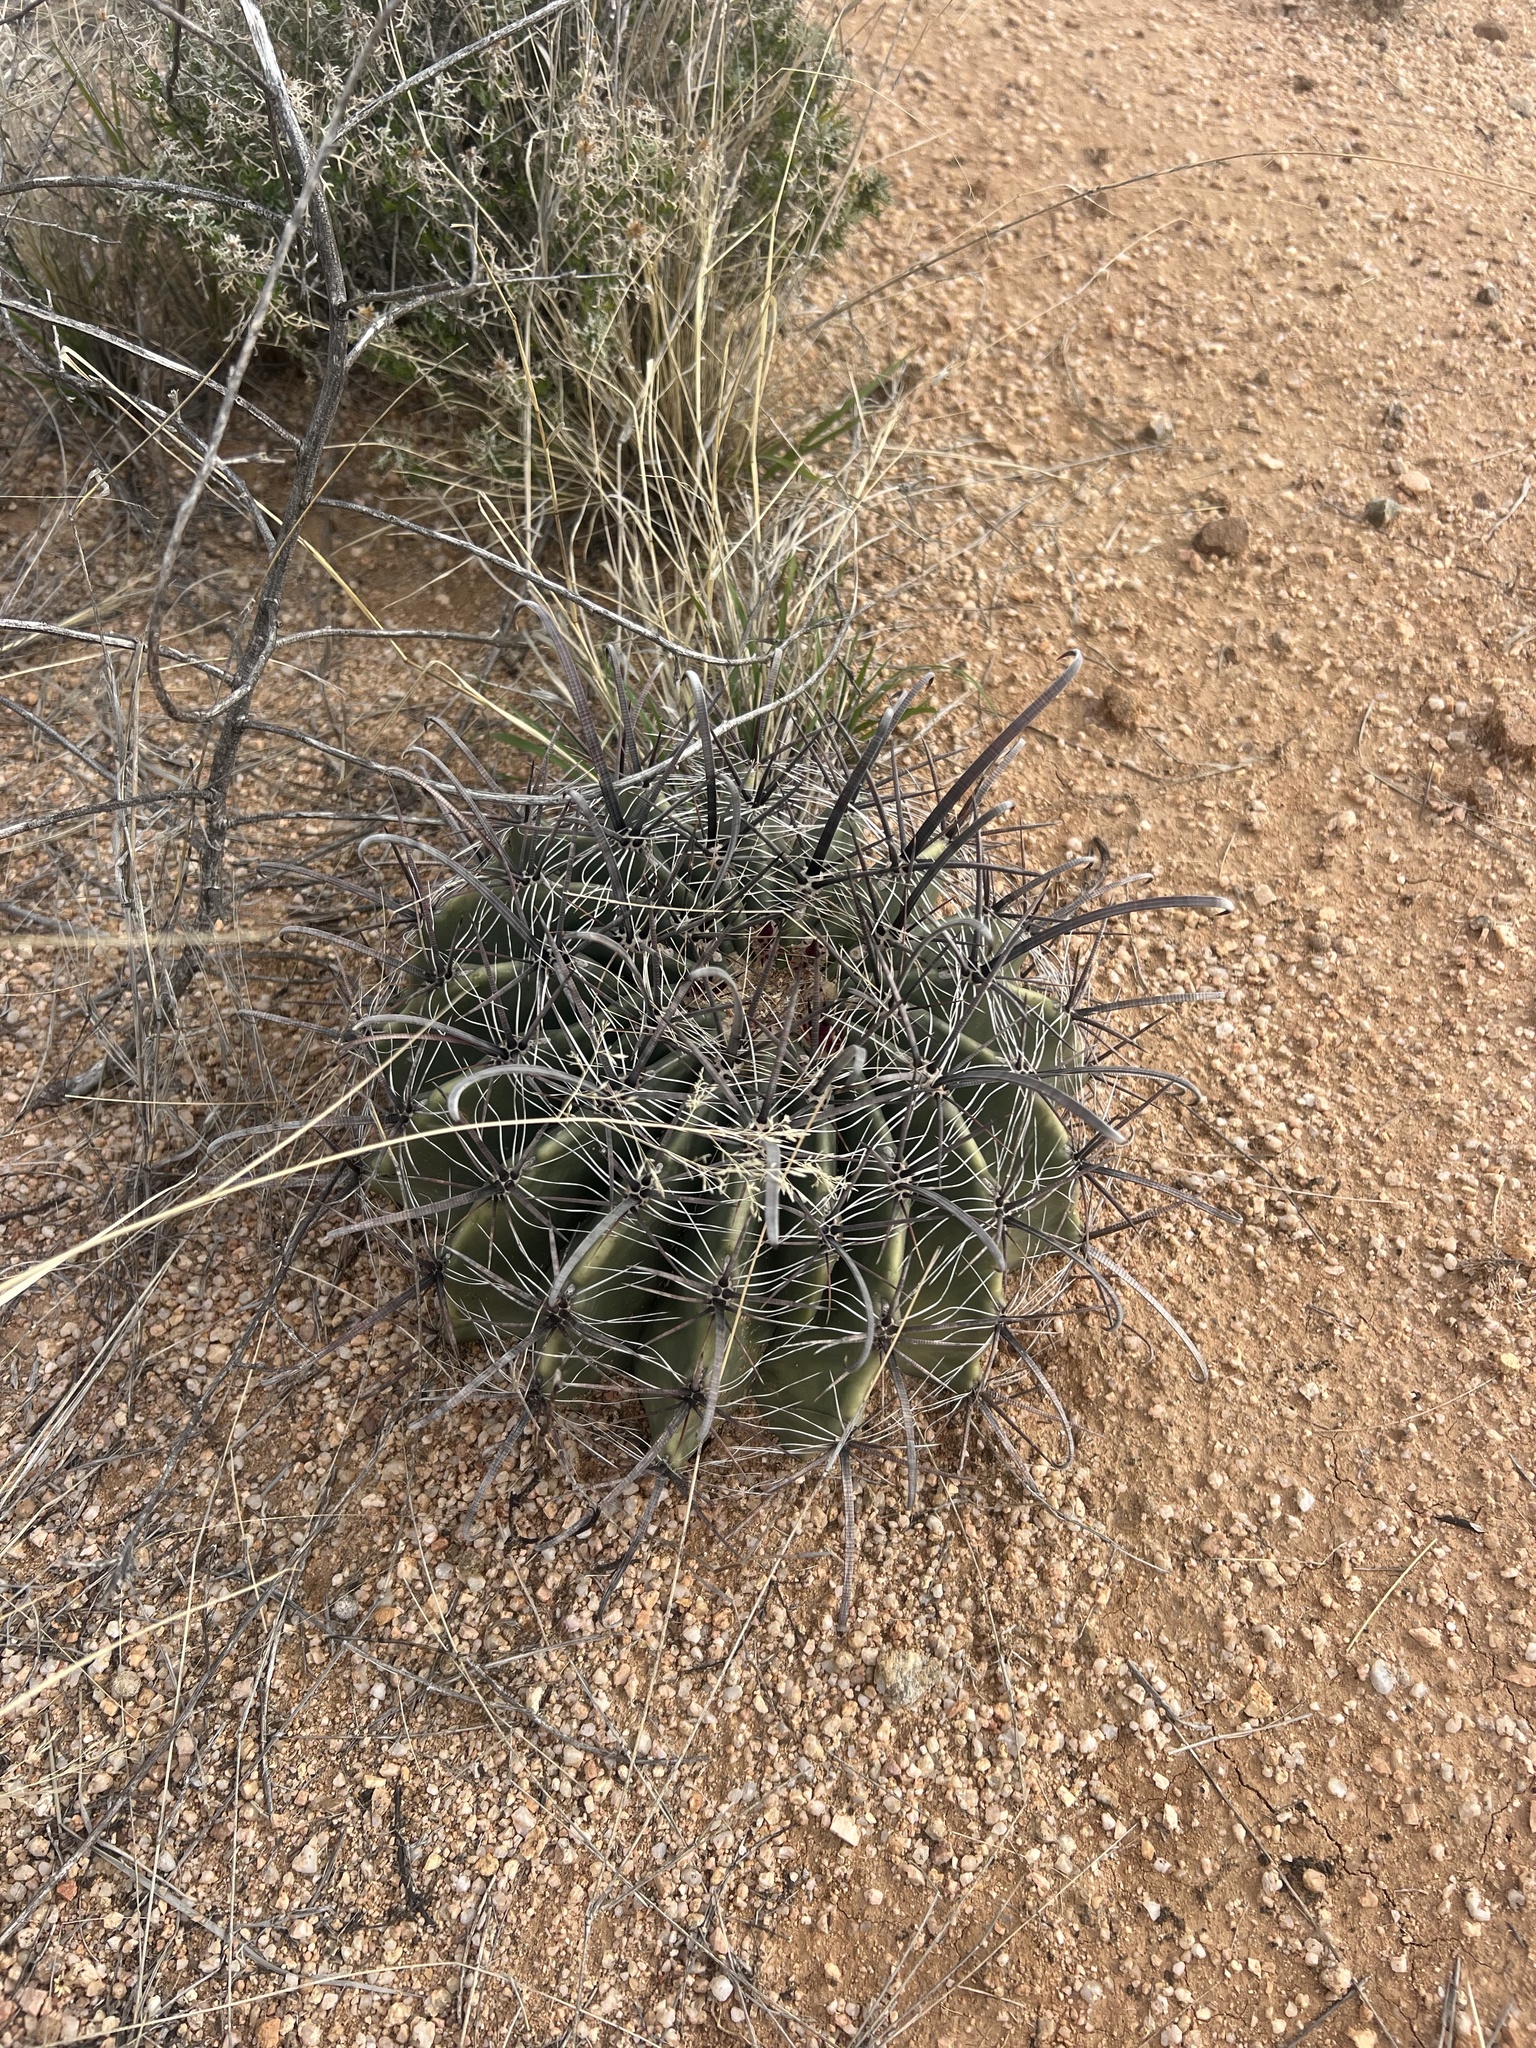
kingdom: Plantae
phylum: Tracheophyta
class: Magnoliopsida
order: Caryophyllales
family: Cactaceae
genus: Ferocactus
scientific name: Ferocactus wislizeni
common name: Candy barrel cactus
